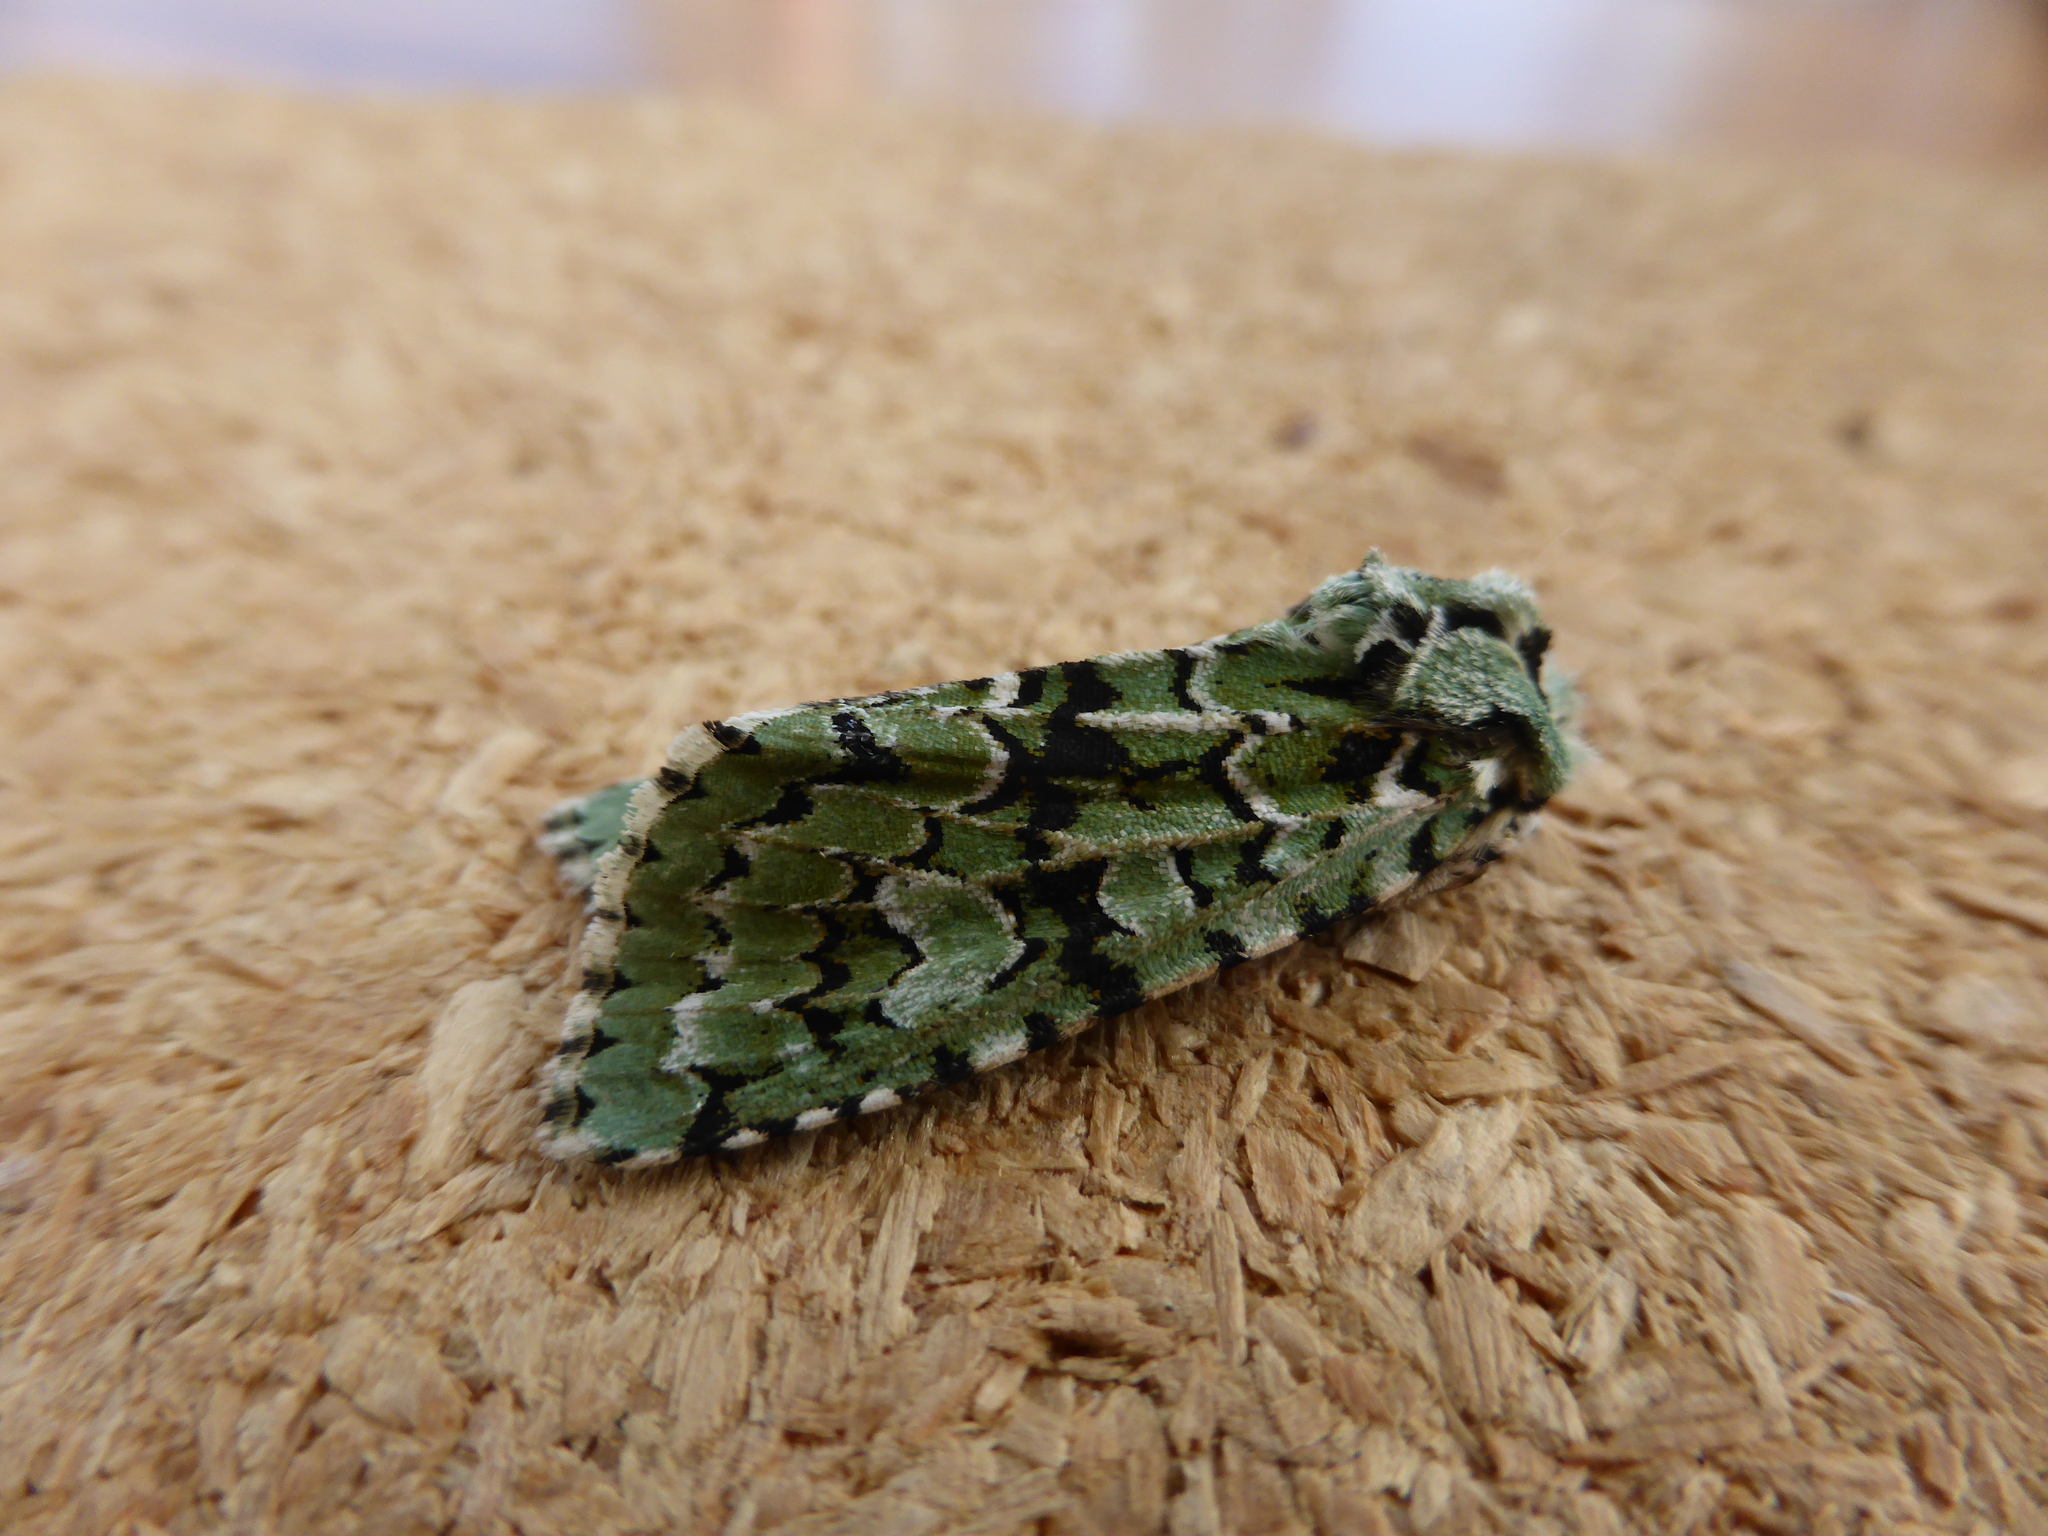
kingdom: Animalia
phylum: Arthropoda
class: Insecta
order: Lepidoptera
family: Noctuidae
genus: Griposia
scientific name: Griposia aprilina
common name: Merveille du jour
